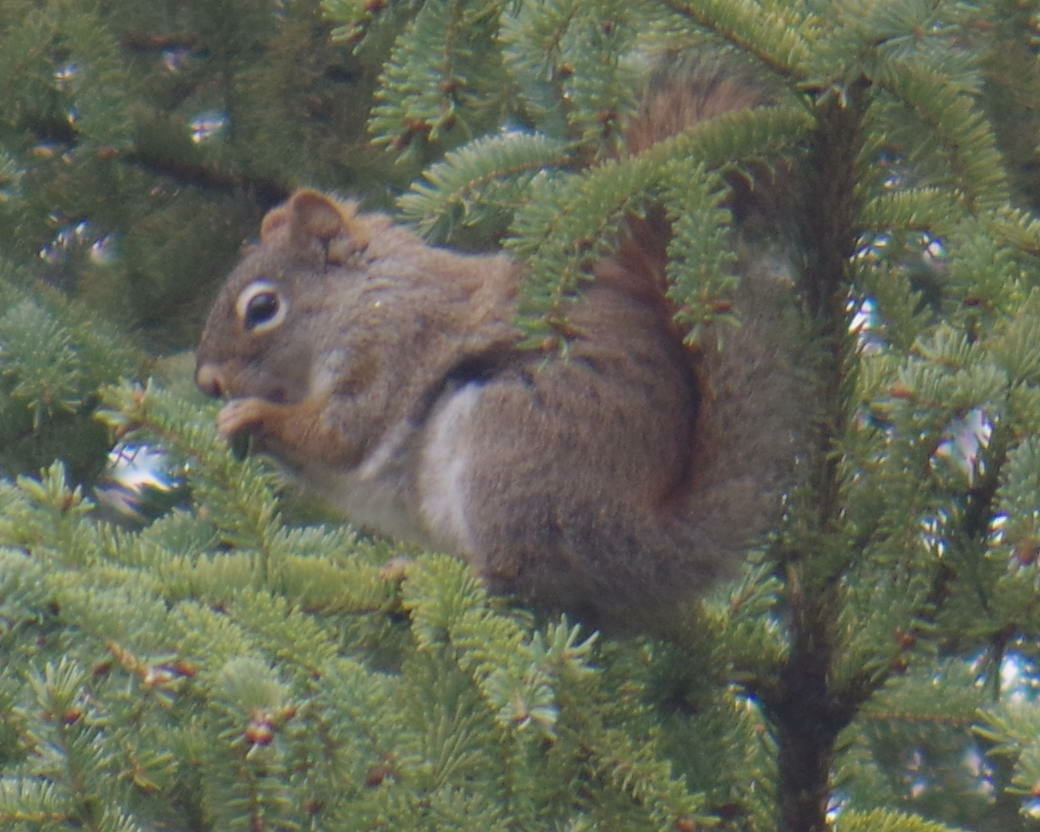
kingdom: Animalia
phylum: Chordata
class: Mammalia
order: Rodentia
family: Sciuridae
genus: Tamiasciurus
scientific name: Tamiasciurus hudsonicus
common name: Red squirrel
